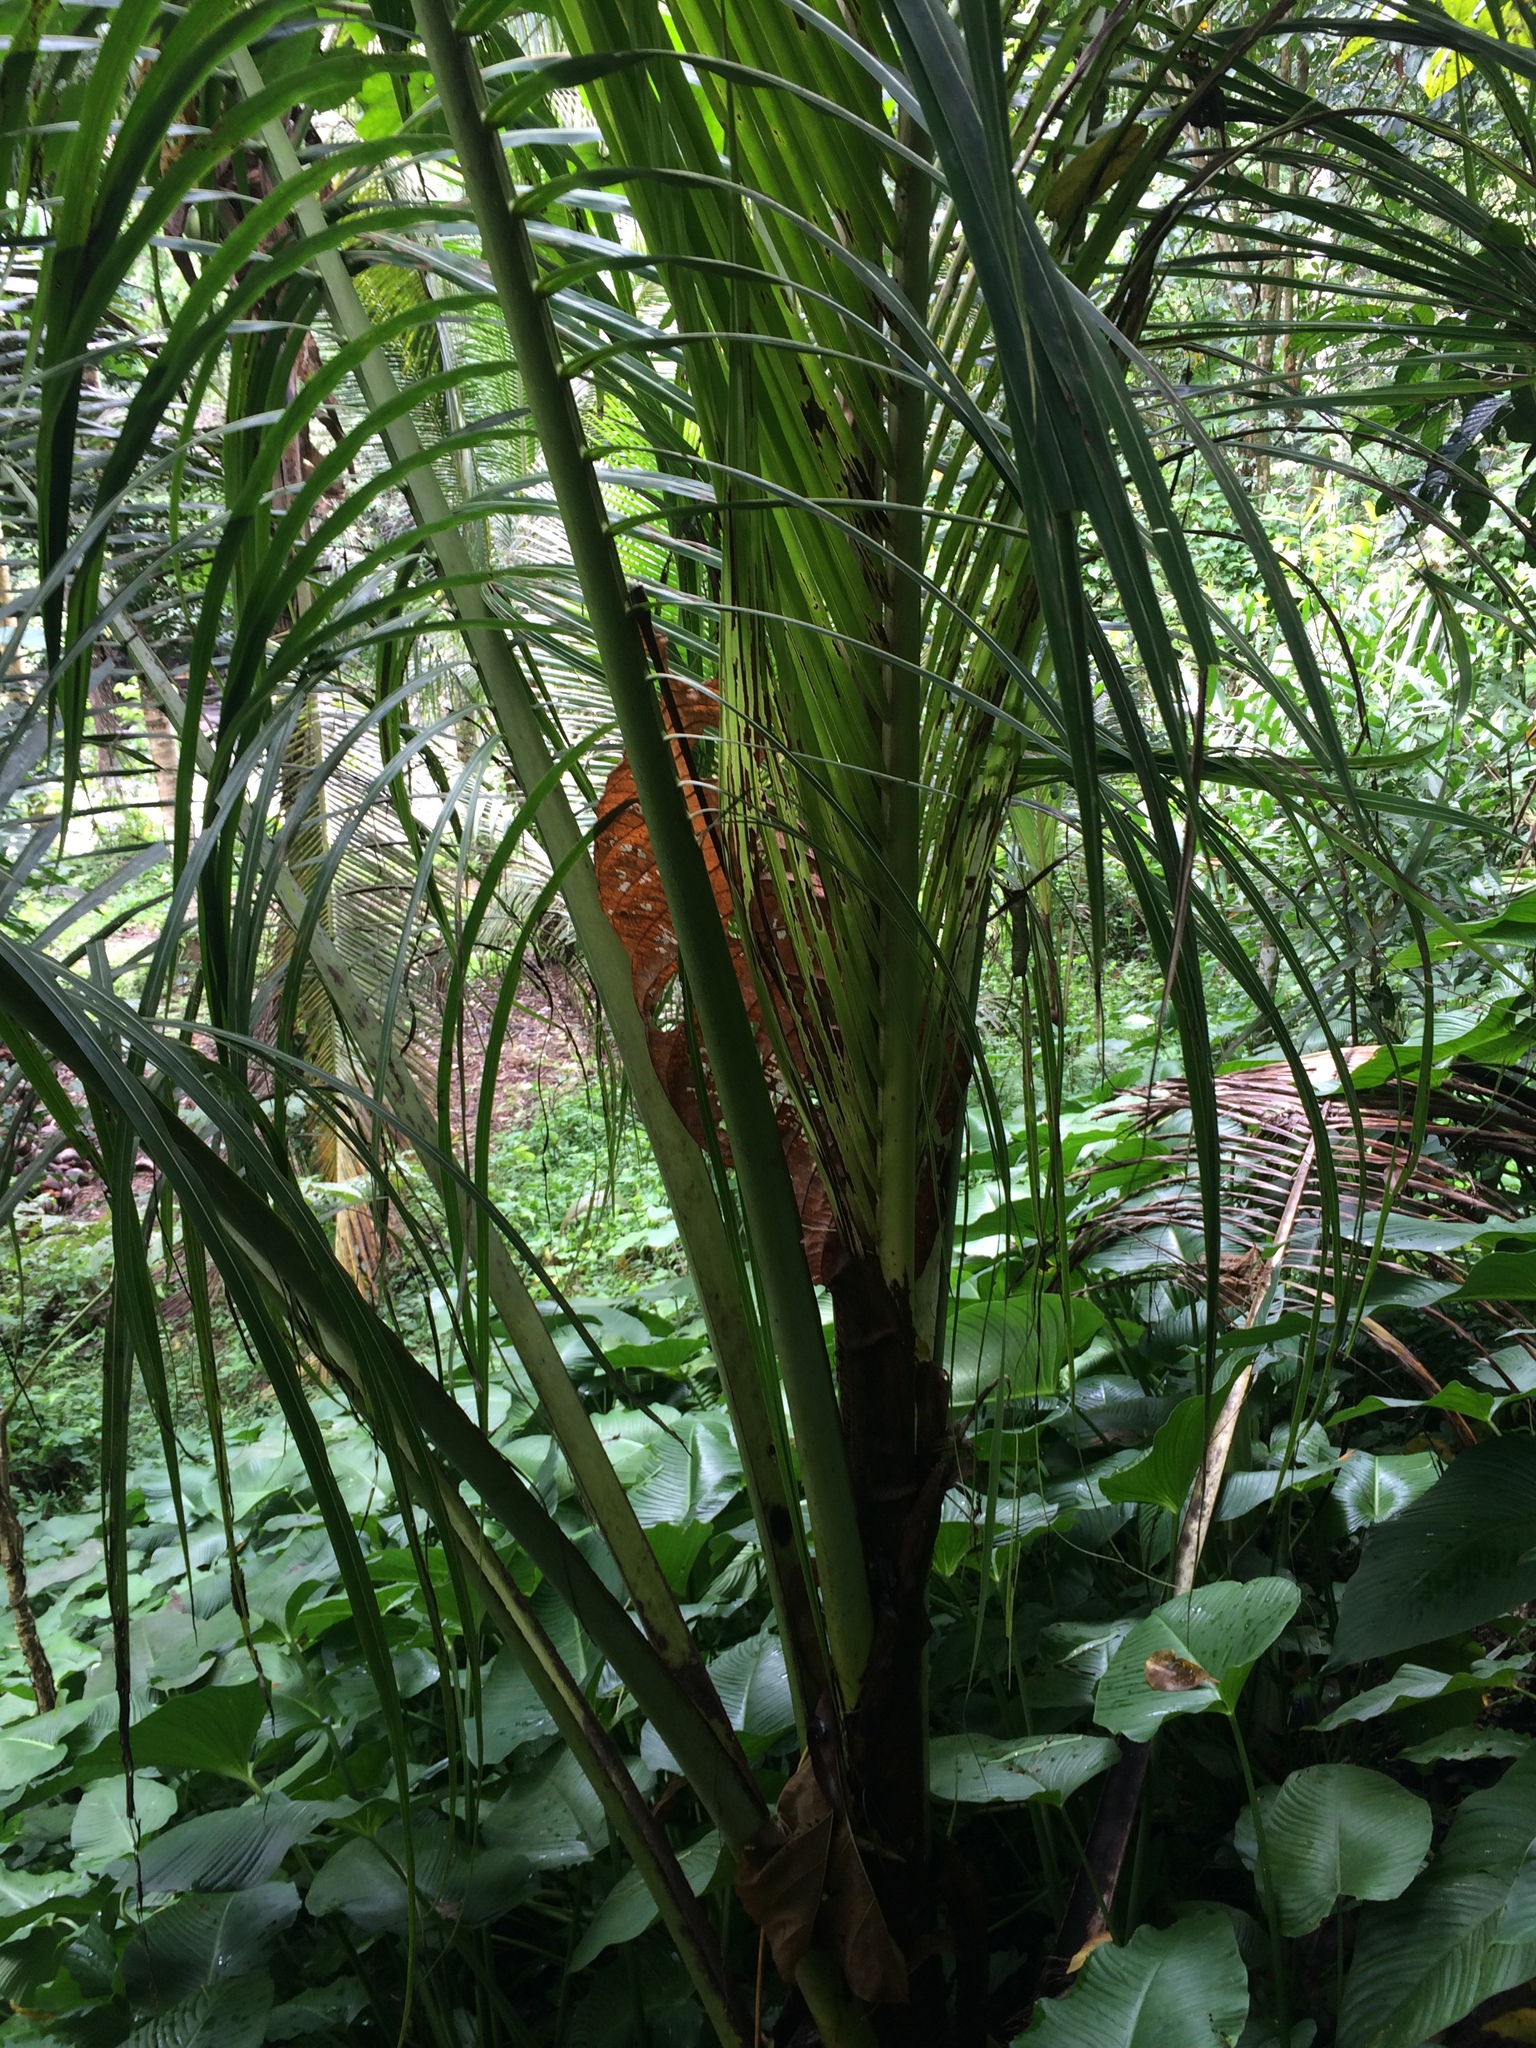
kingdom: Plantae
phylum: Tracheophyta
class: Liliopsida
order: Arecales
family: Arecaceae
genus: Cocos
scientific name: Cocos nucifera
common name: Coconut palm
